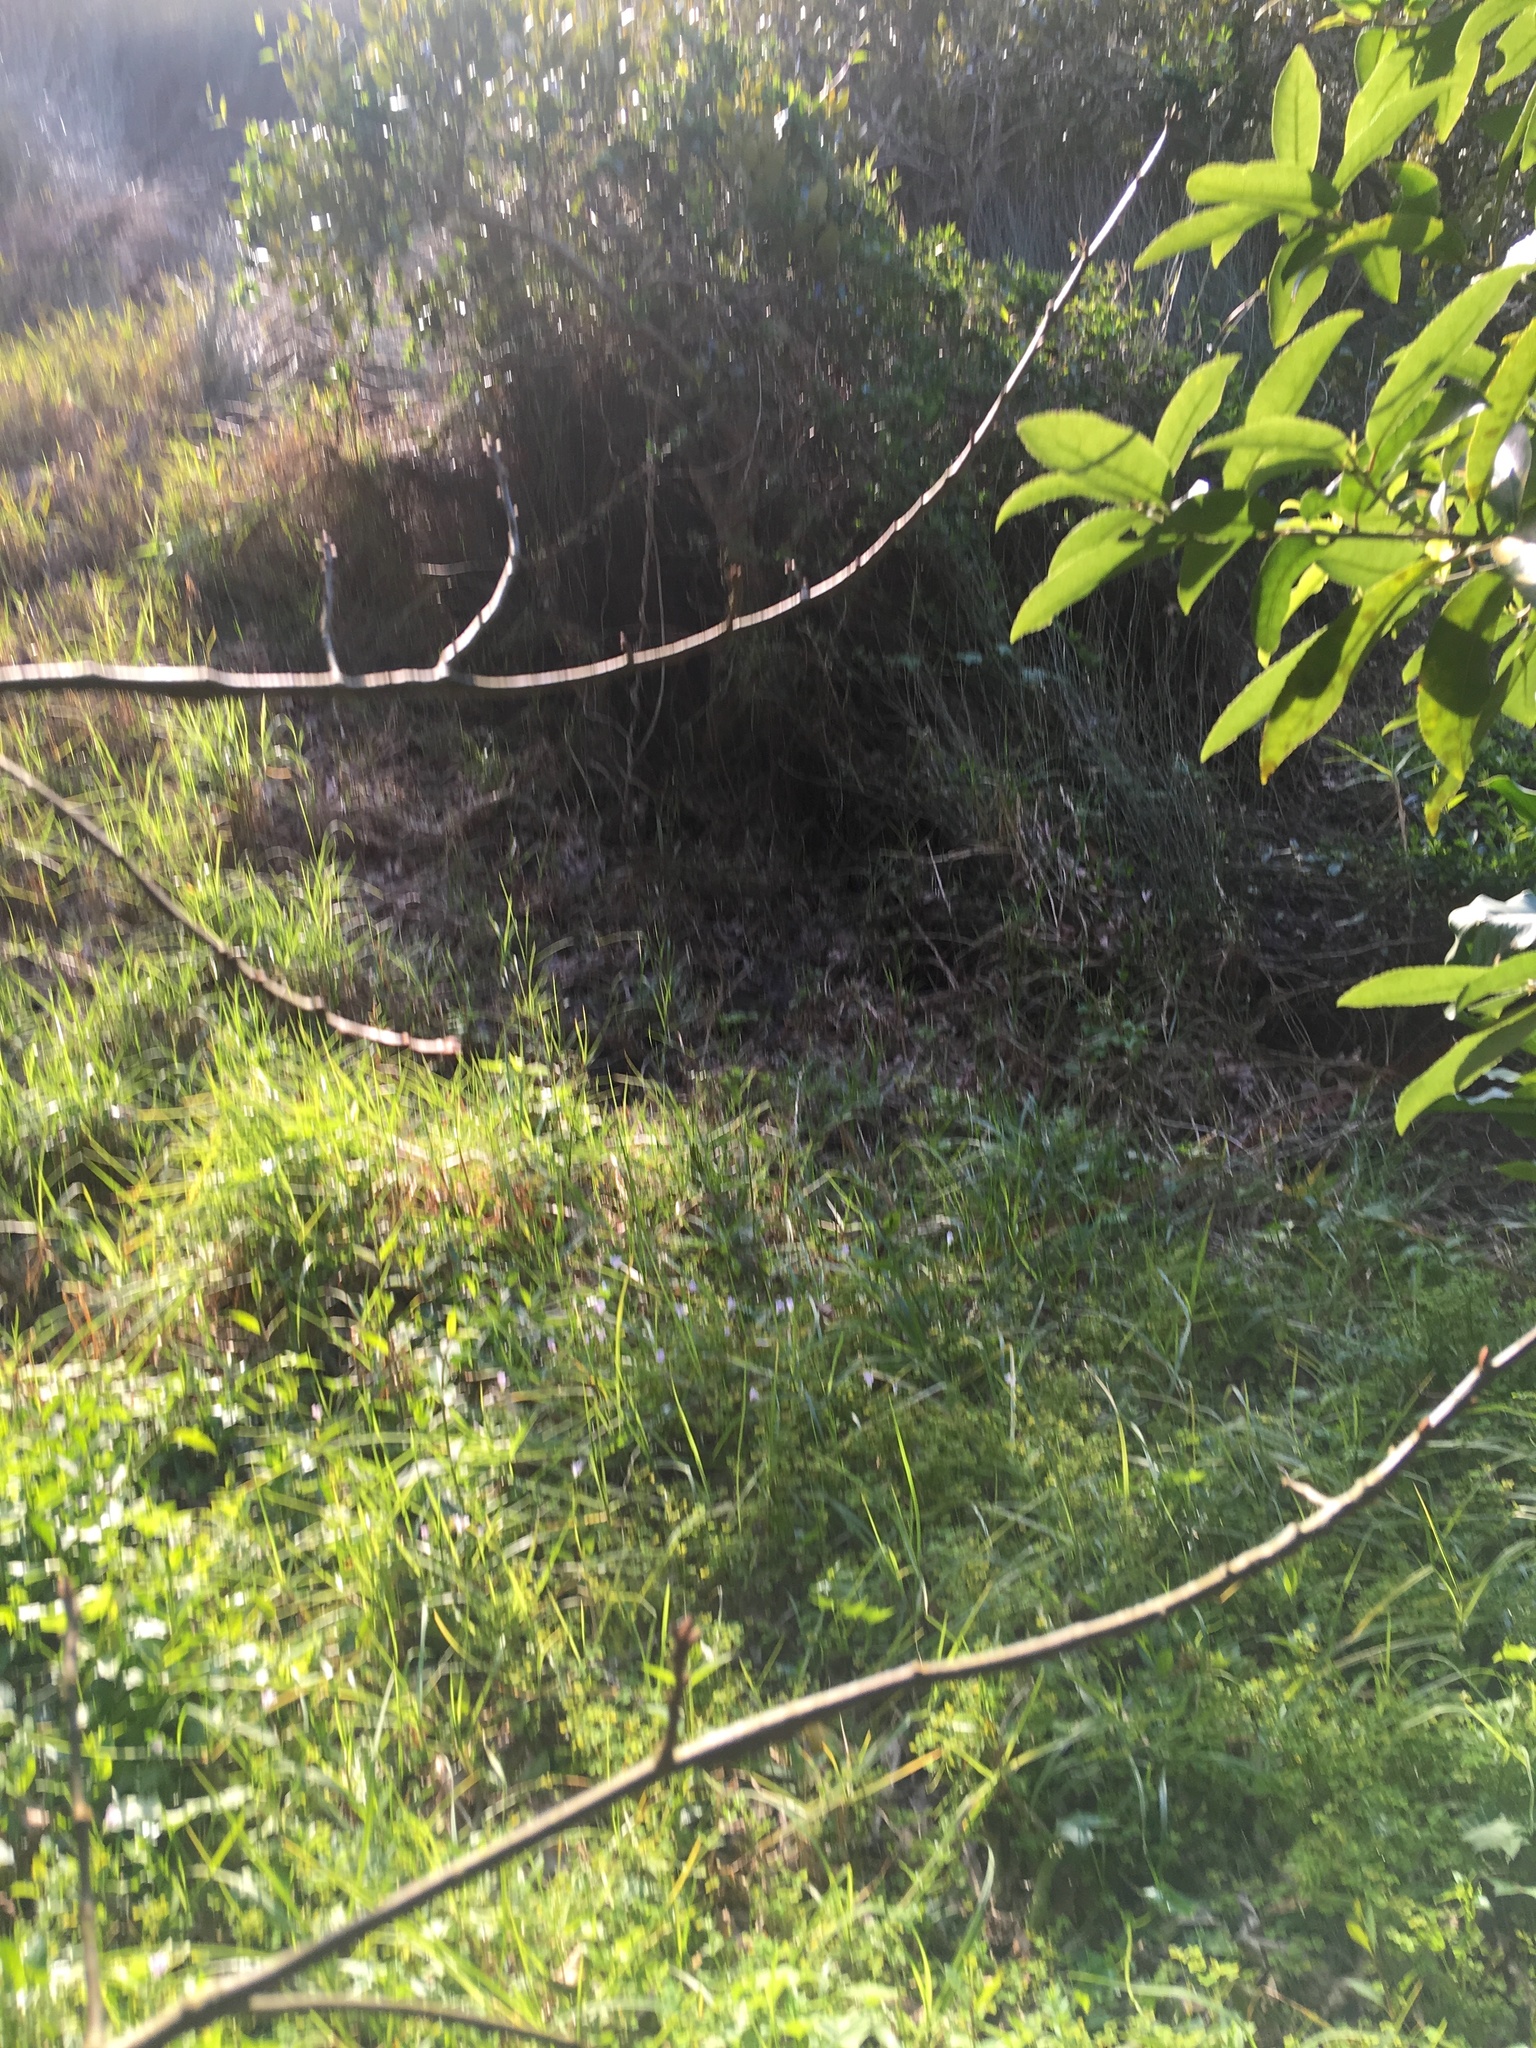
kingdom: Plantae
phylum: Tracheophyta
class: Liliopsida
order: Poales
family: Poaceae
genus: Cenchrus
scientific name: Cenchrus clandestinus
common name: Kikuyugrass
